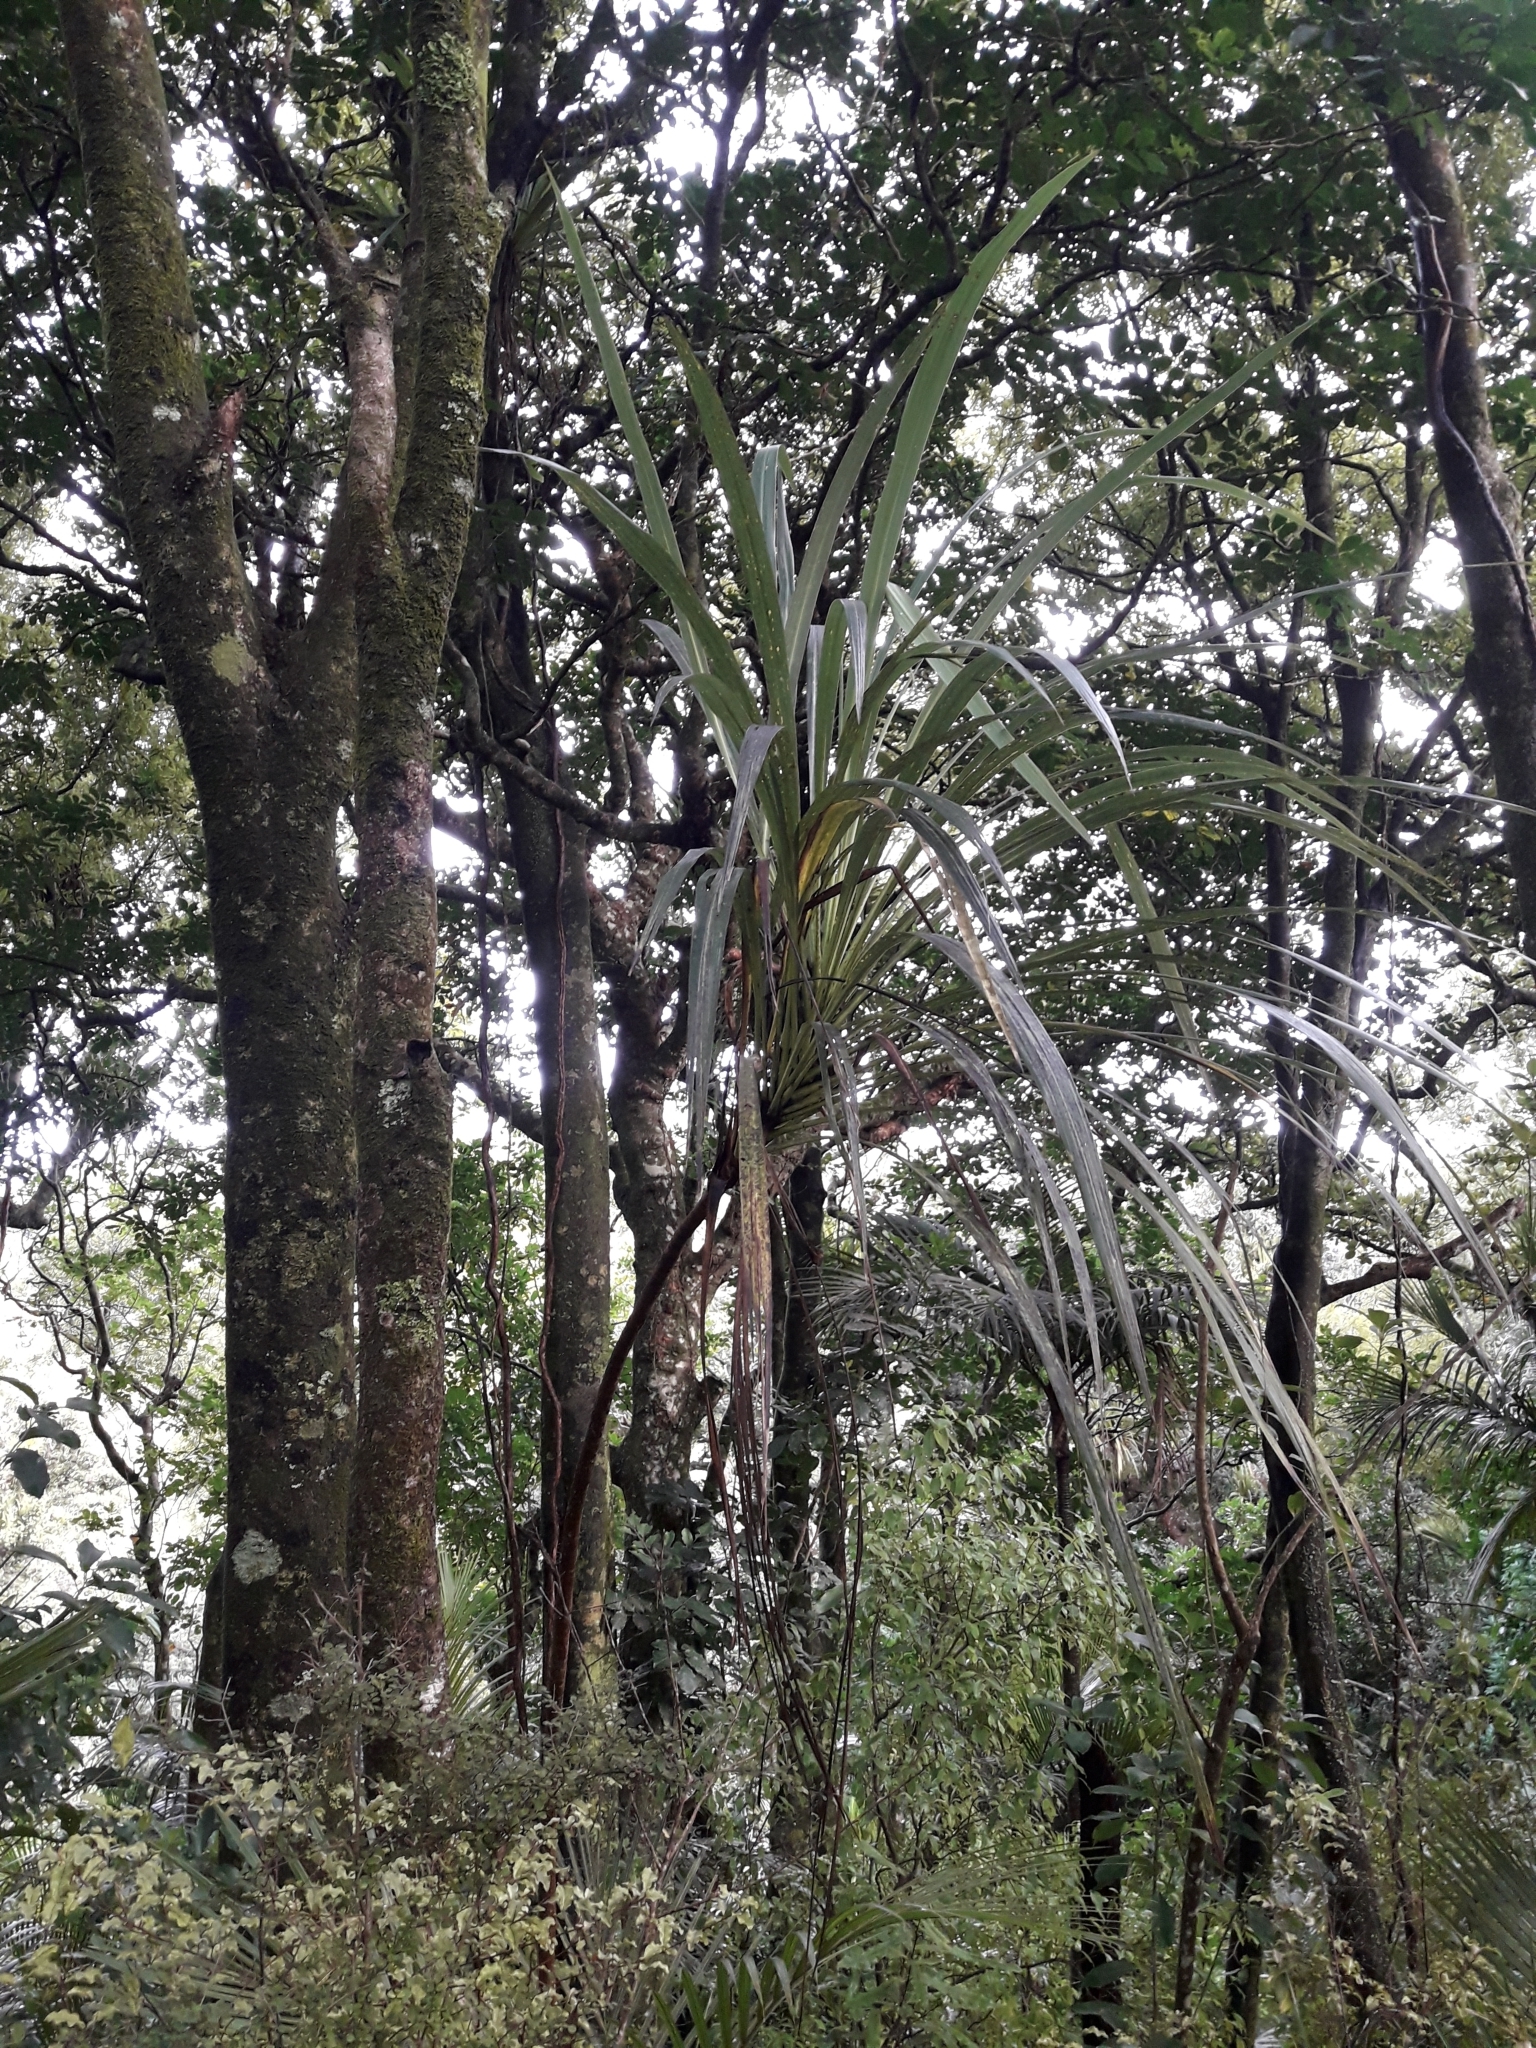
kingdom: Plantae
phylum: Tracheophyta
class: Liliopsida
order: Asparagales
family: Asparagaceae
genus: Cordyline
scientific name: Cordyline banksii
